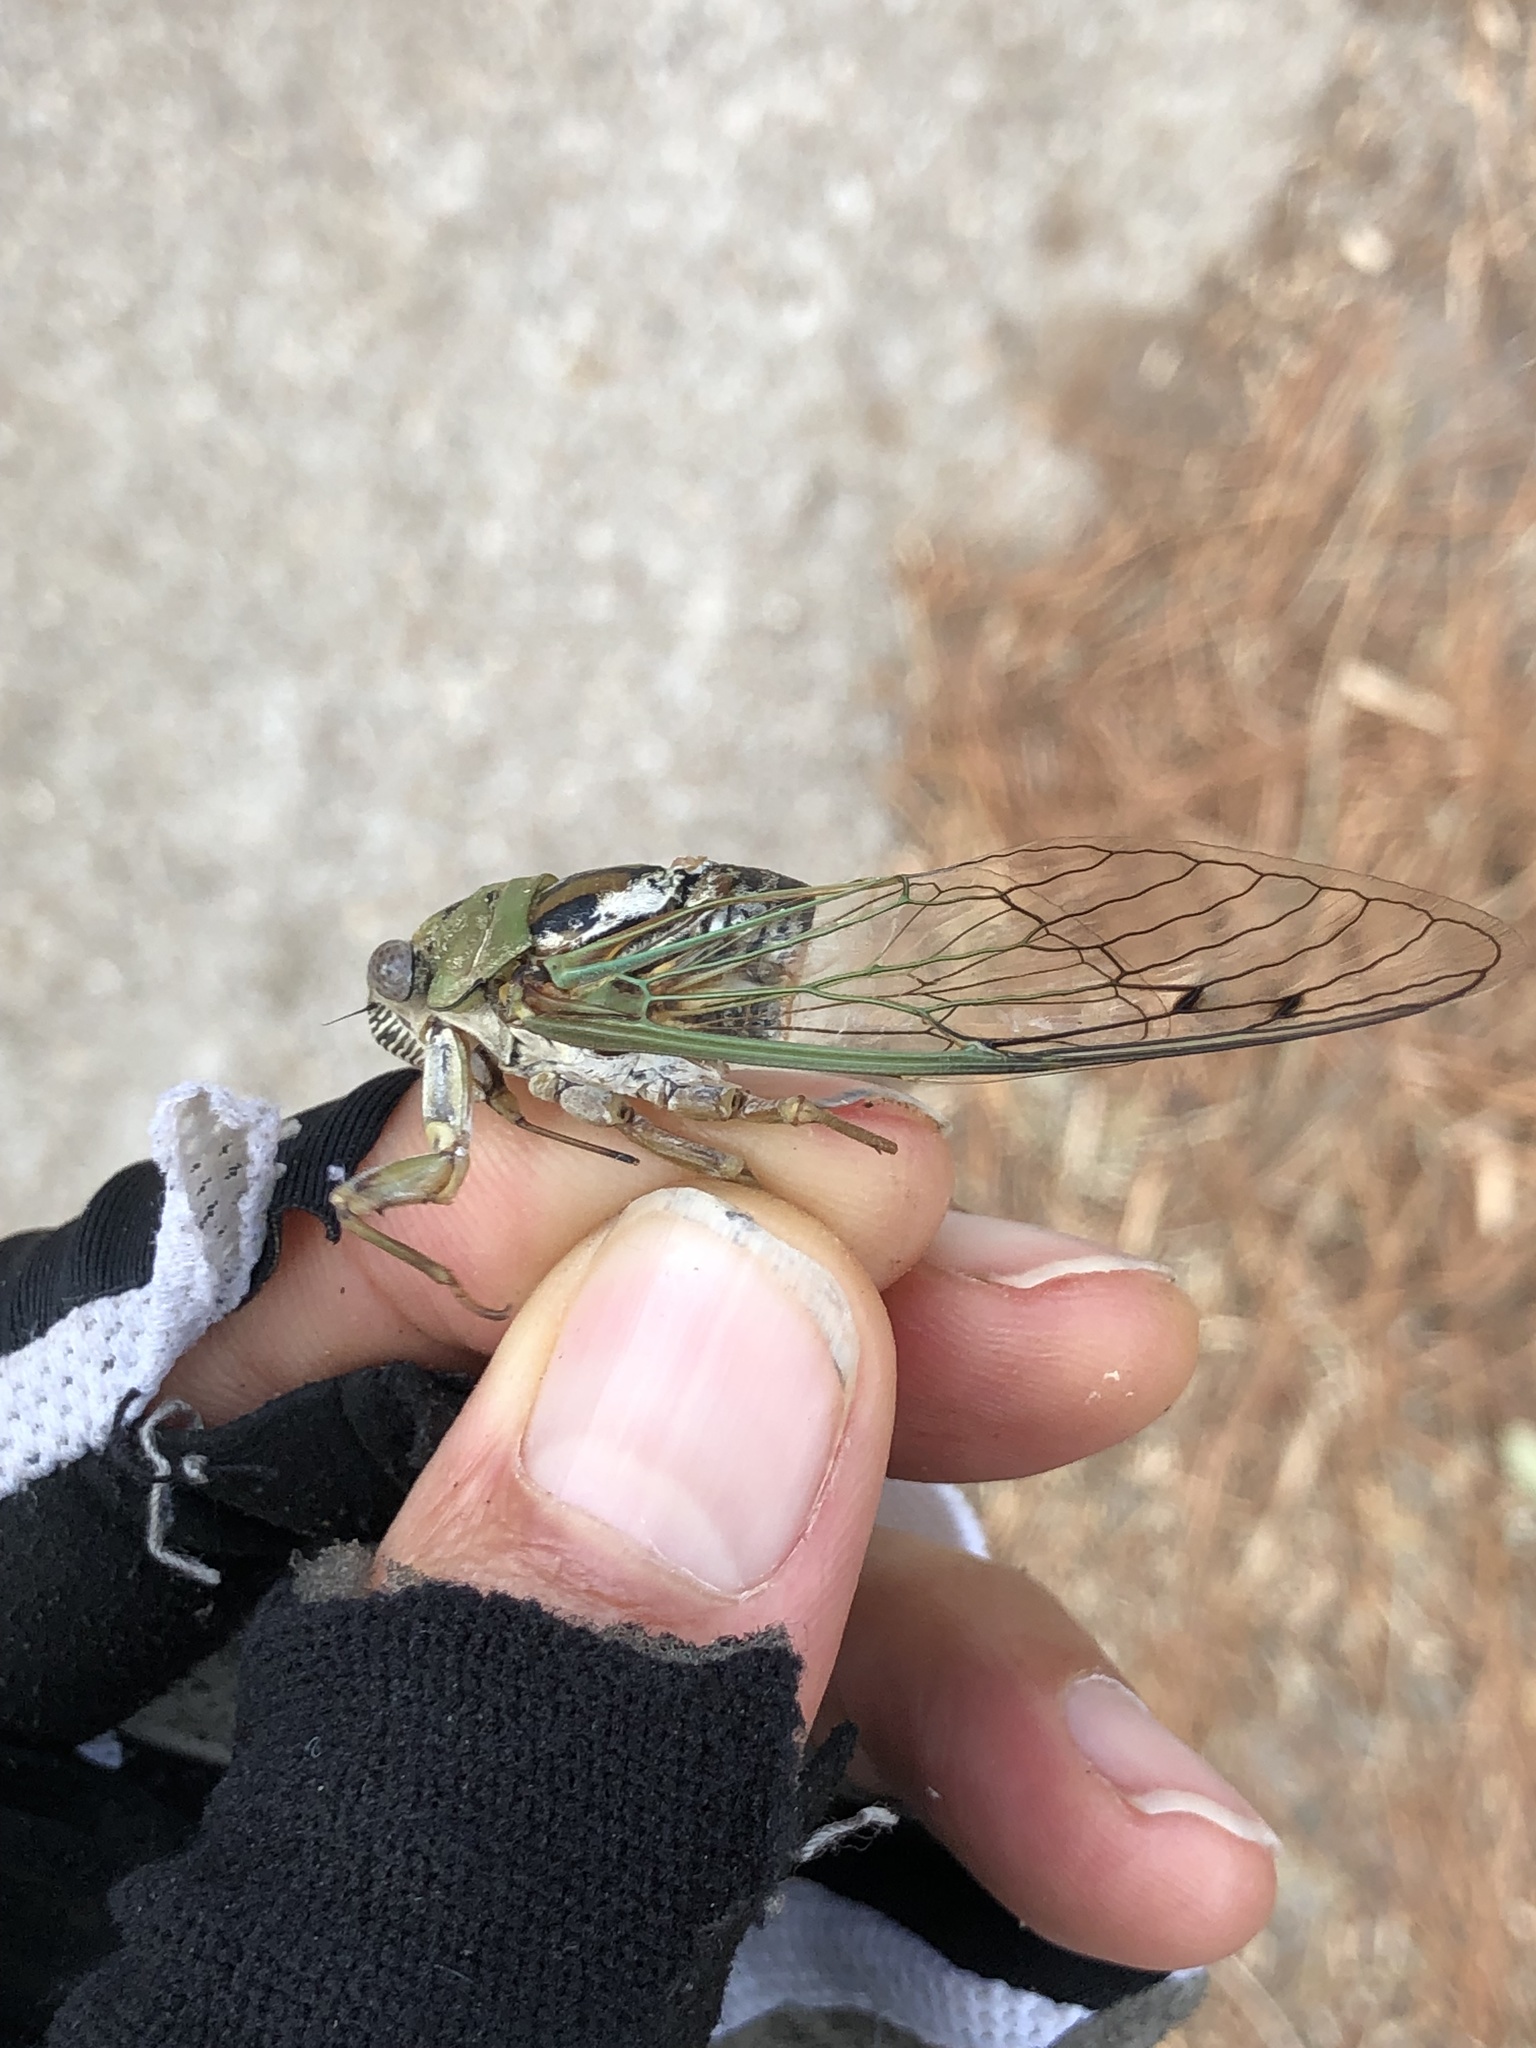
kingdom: Animalia
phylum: Arthropoda
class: Insecta
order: Hemiptera
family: Cicadidae
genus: Megatibicen
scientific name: Megatibicen resh
